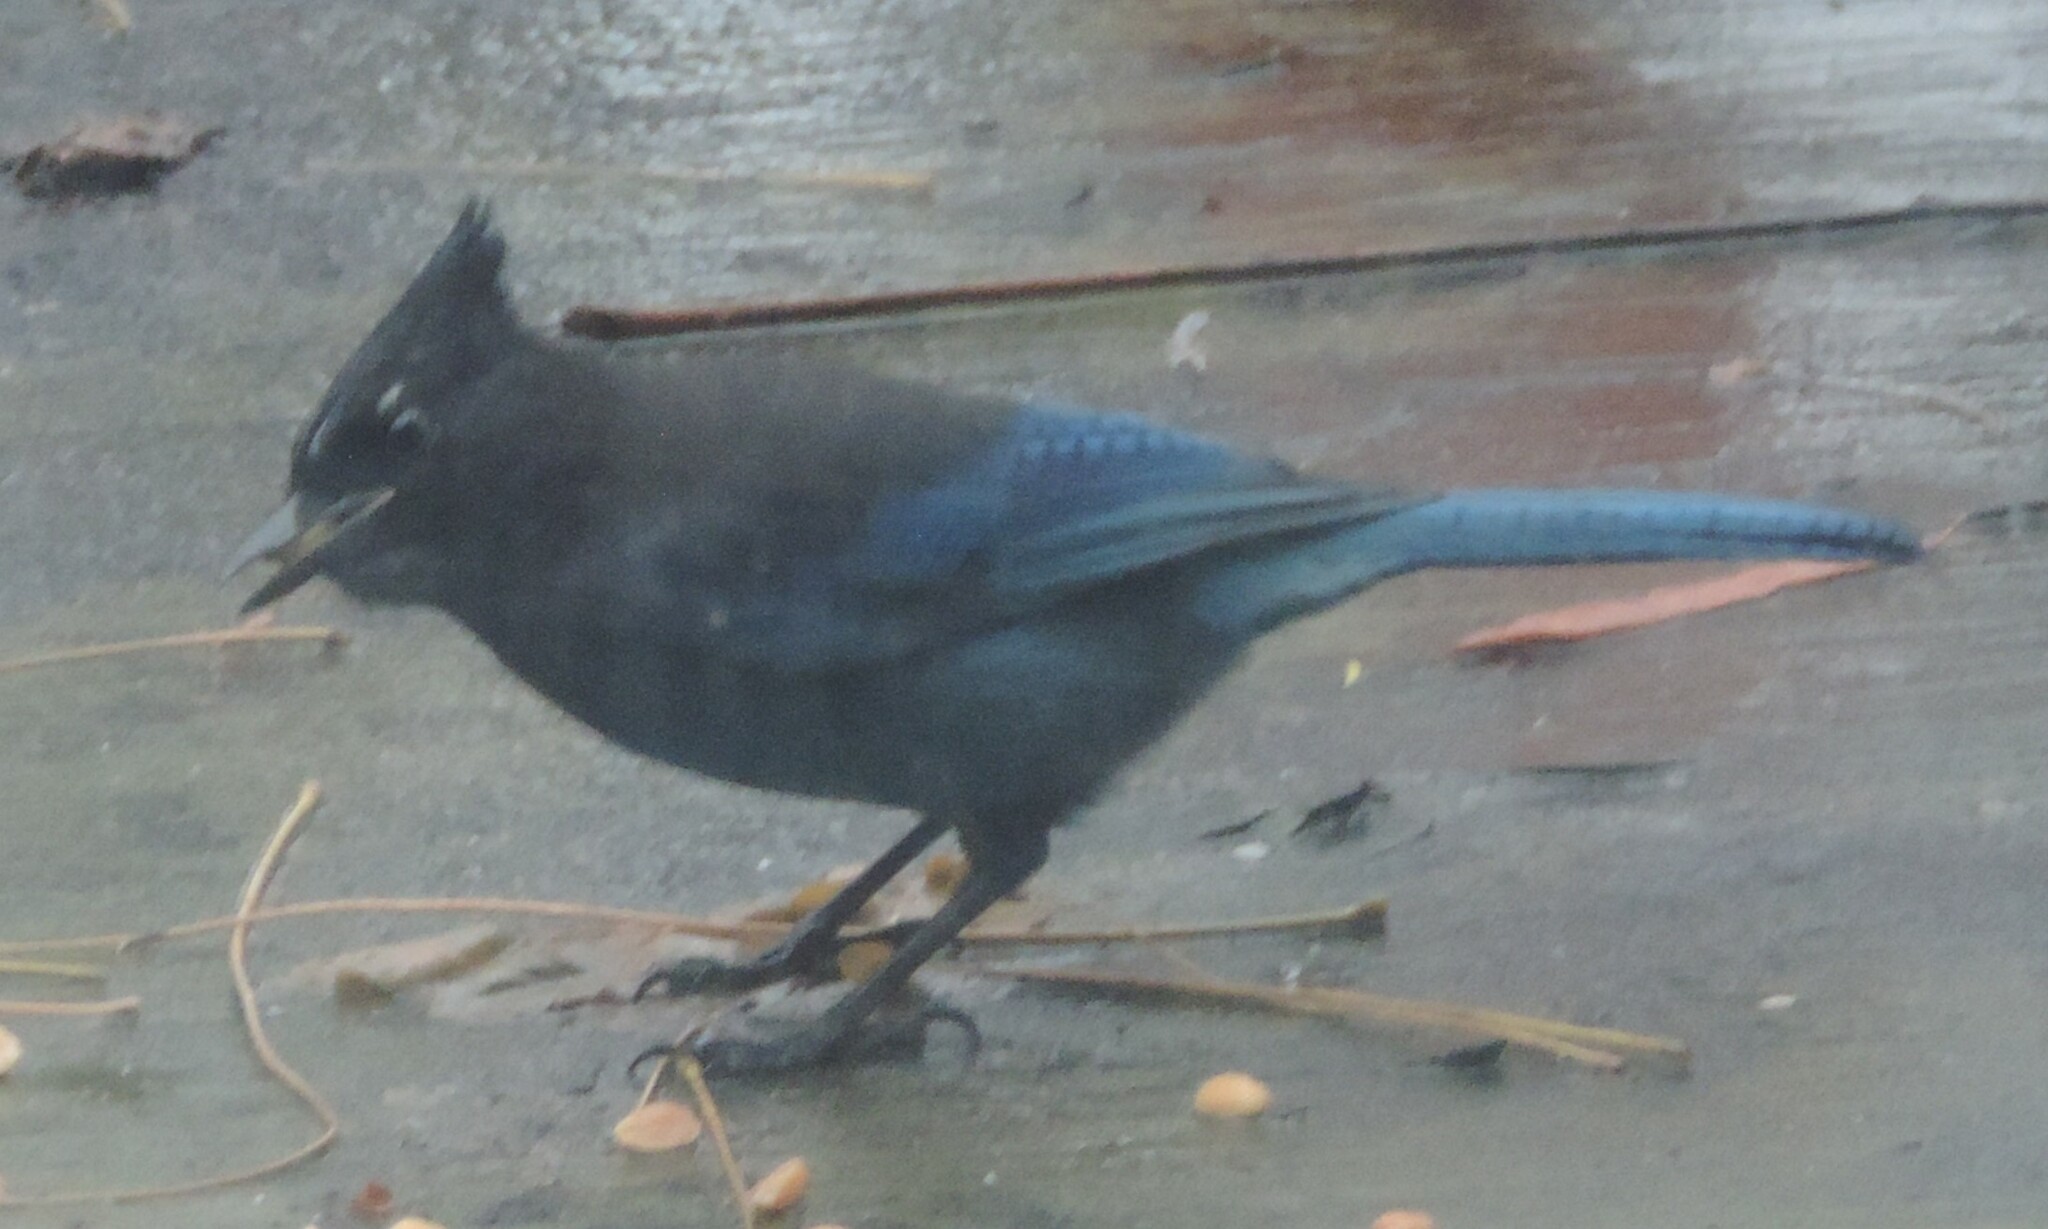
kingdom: Animalia
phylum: Chordata
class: Aves
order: Passeriformes
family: Corvidae
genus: Cyanocitta
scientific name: Cyanocitta stelleri
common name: Steller's jay
